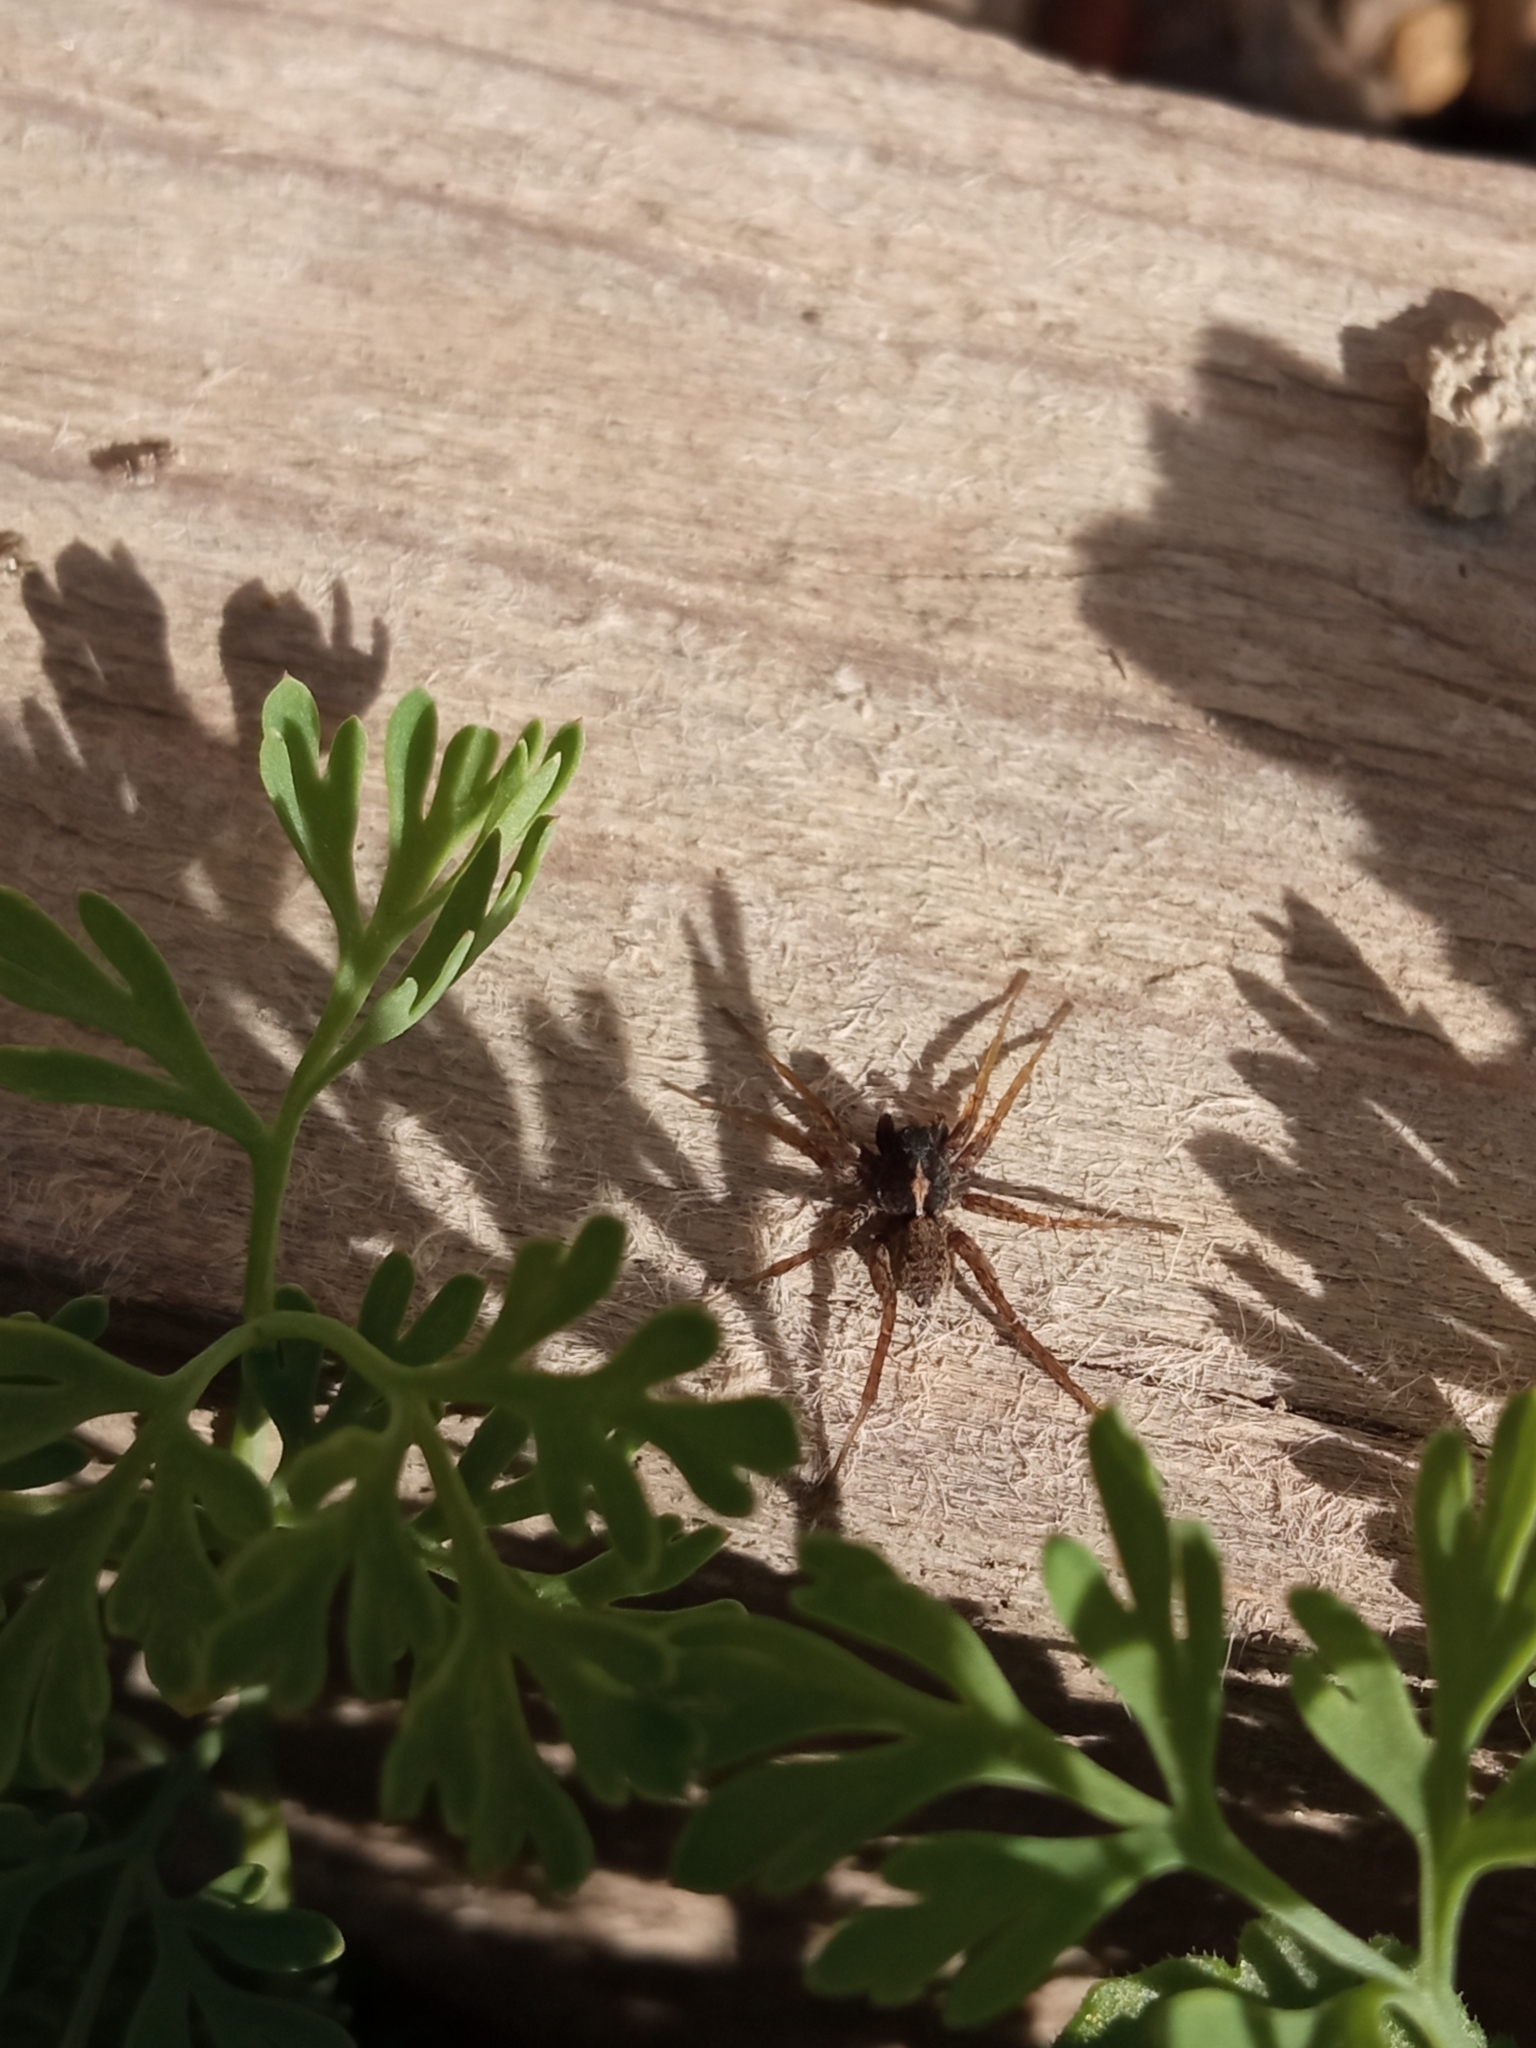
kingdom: Animalia
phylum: Arthropoda
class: Arachnida
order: Araneae
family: Lycosidae
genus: Pardosa
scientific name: Pardosa
